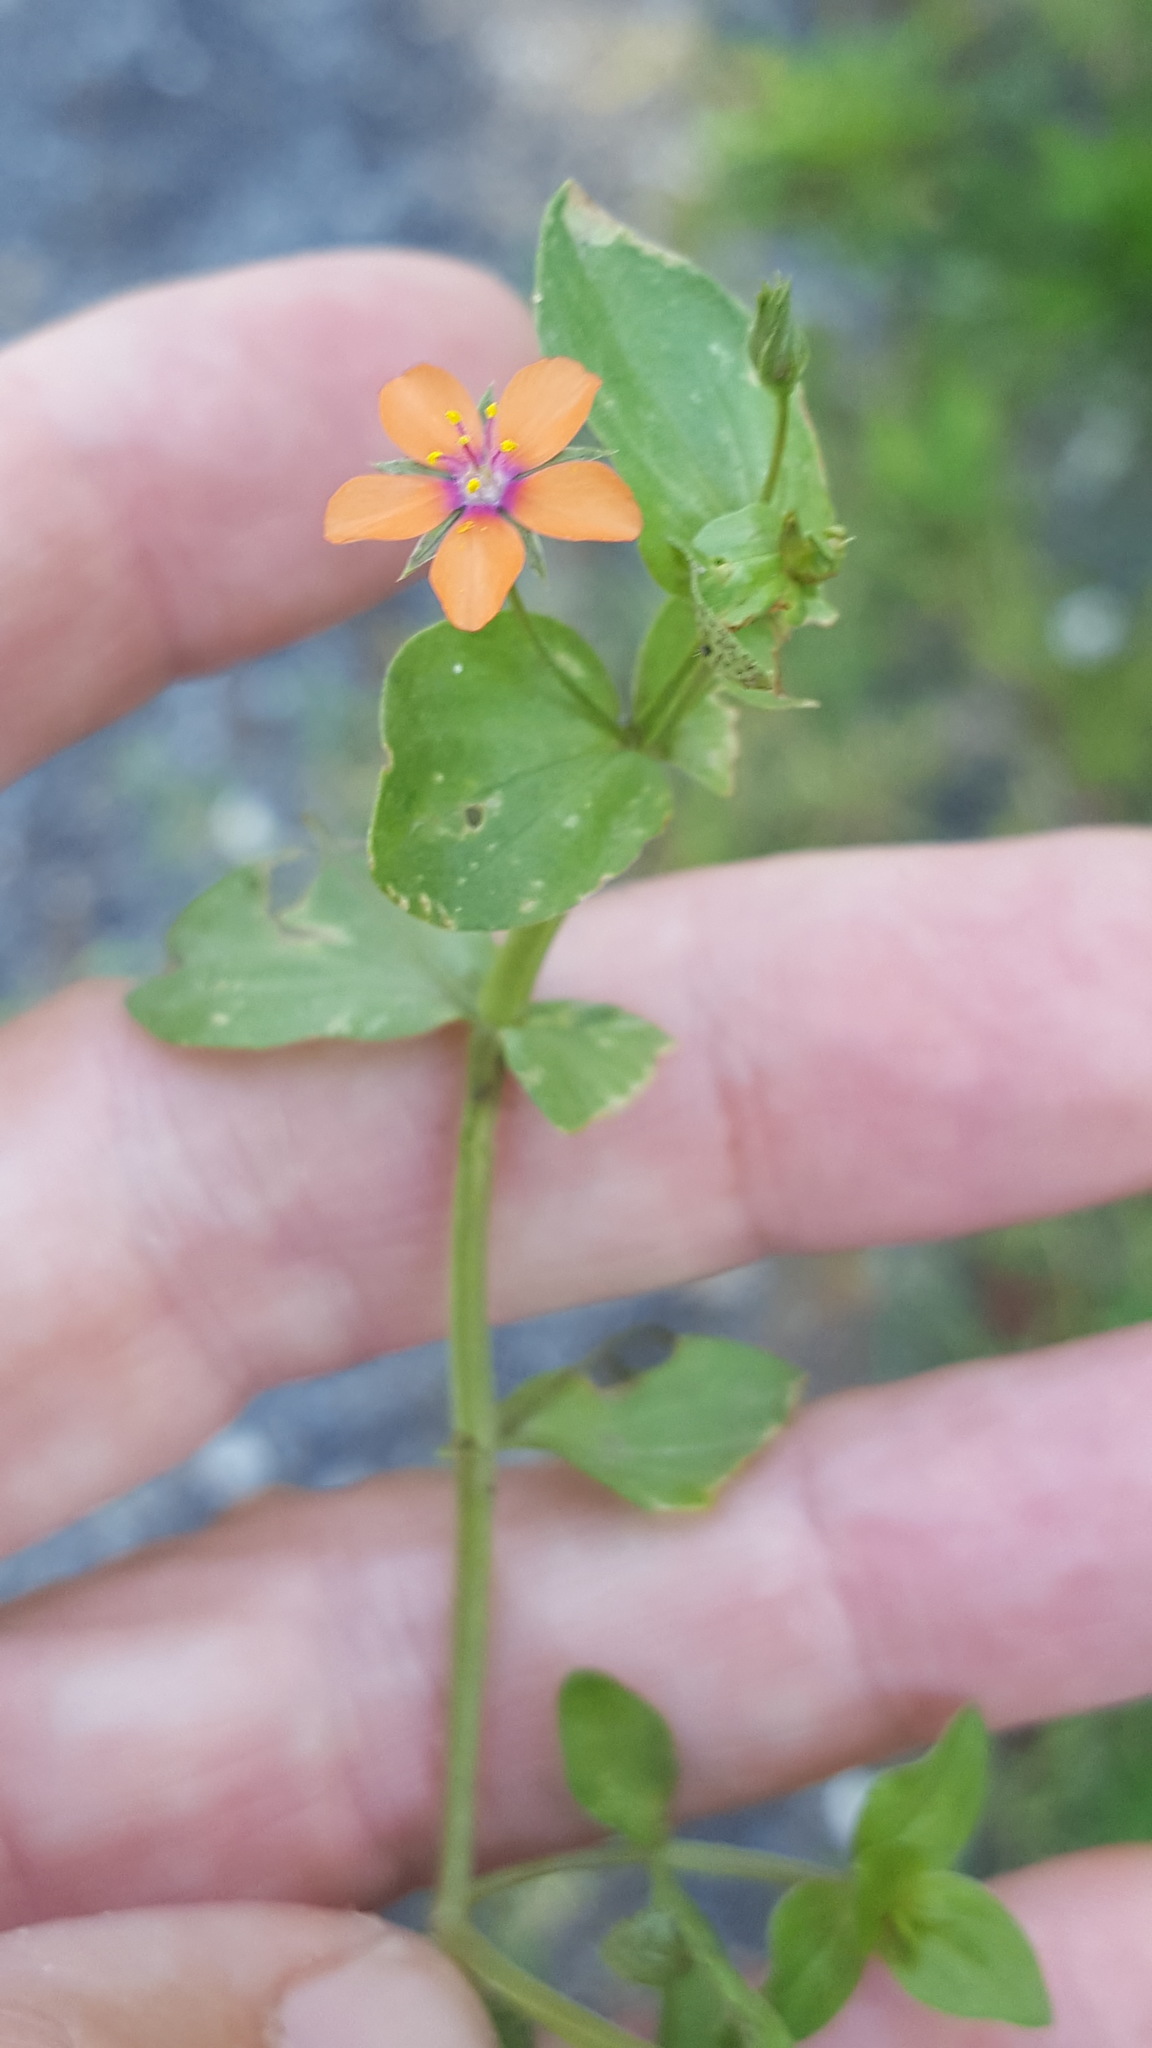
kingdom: Plantae
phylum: Tracheophyta
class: Magnoliopsida
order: Ericales
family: Primulaceae
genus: Lysimachia
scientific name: Lysimachia arvensis
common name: Scarlet pimpernel
